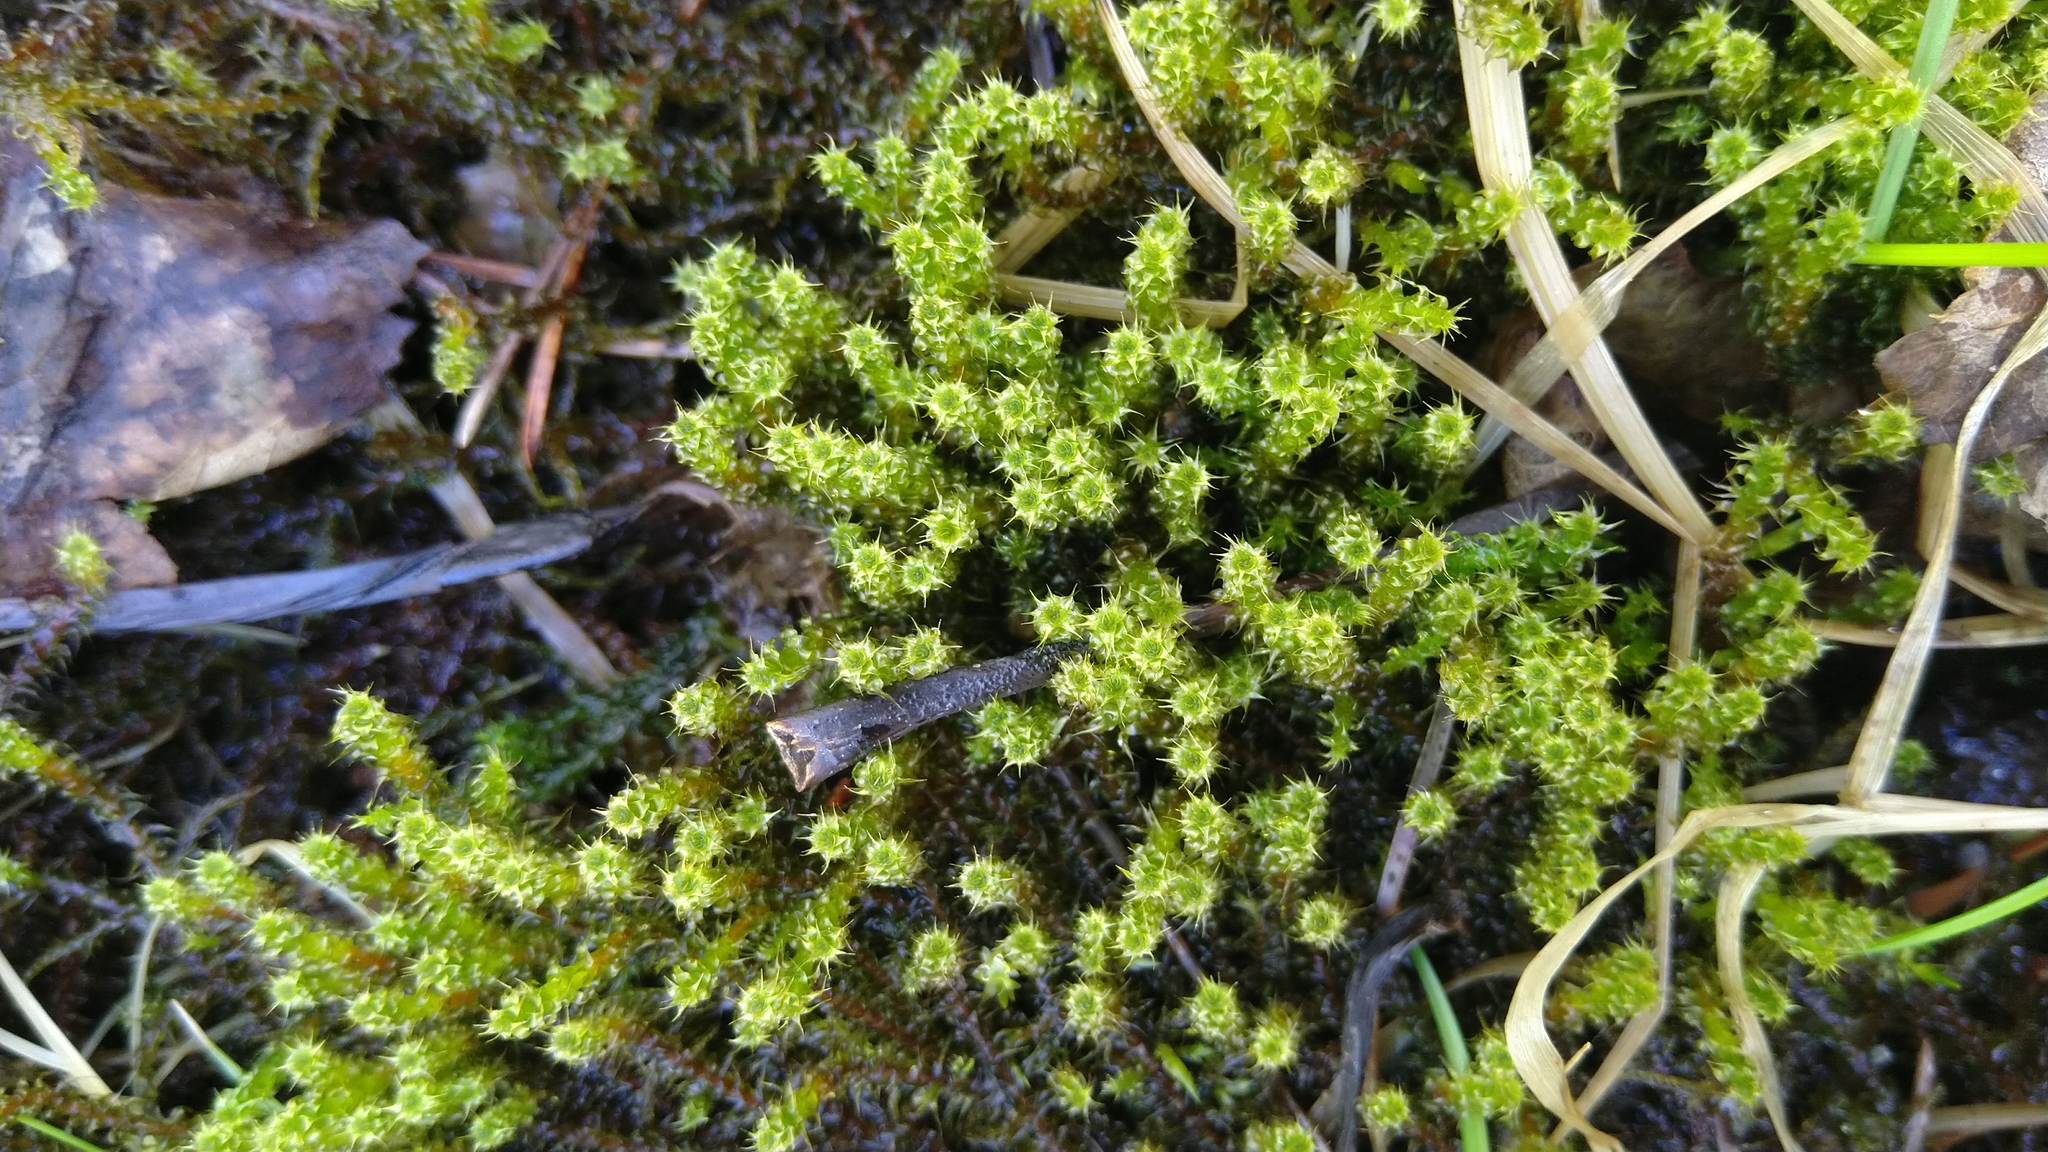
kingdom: Plantae
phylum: Bryophyta
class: Bryopsida
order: Hypnales
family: Hylocomiaceae
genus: Rhytidiadelphus
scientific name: Rhytidiadelphus squarrosus
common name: Springy turf-moss
